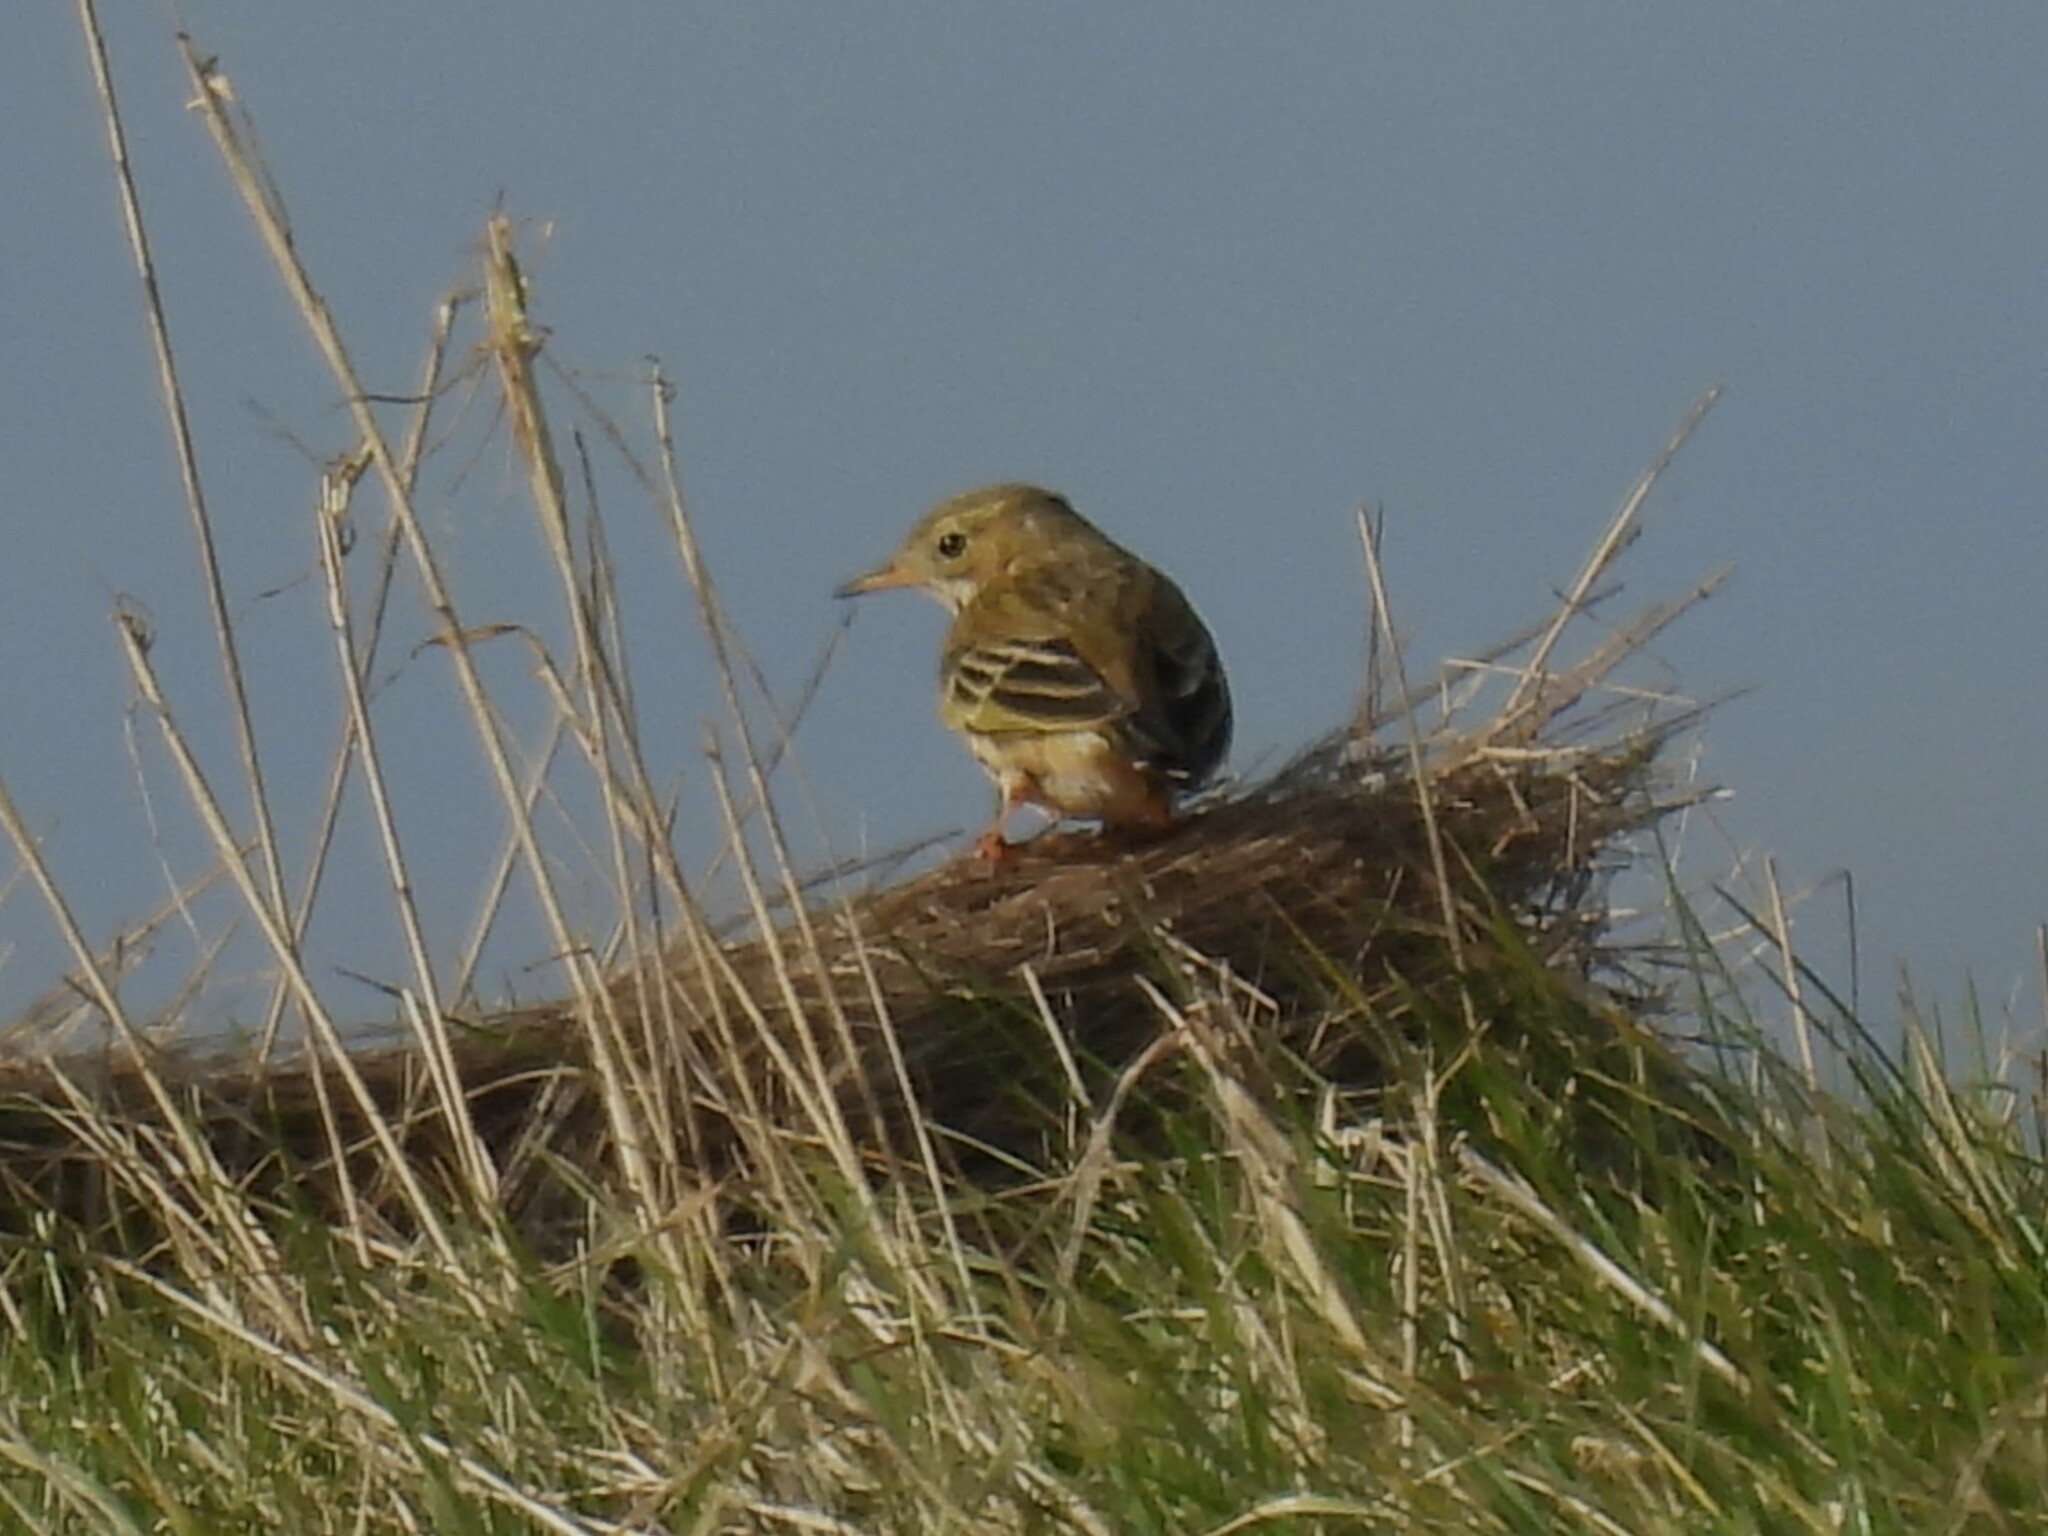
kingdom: Animalia
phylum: Chordata
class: Aves
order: Passeriformes
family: Motacillidae
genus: Anthus
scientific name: Anthus pratensis
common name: Meadow pipit
